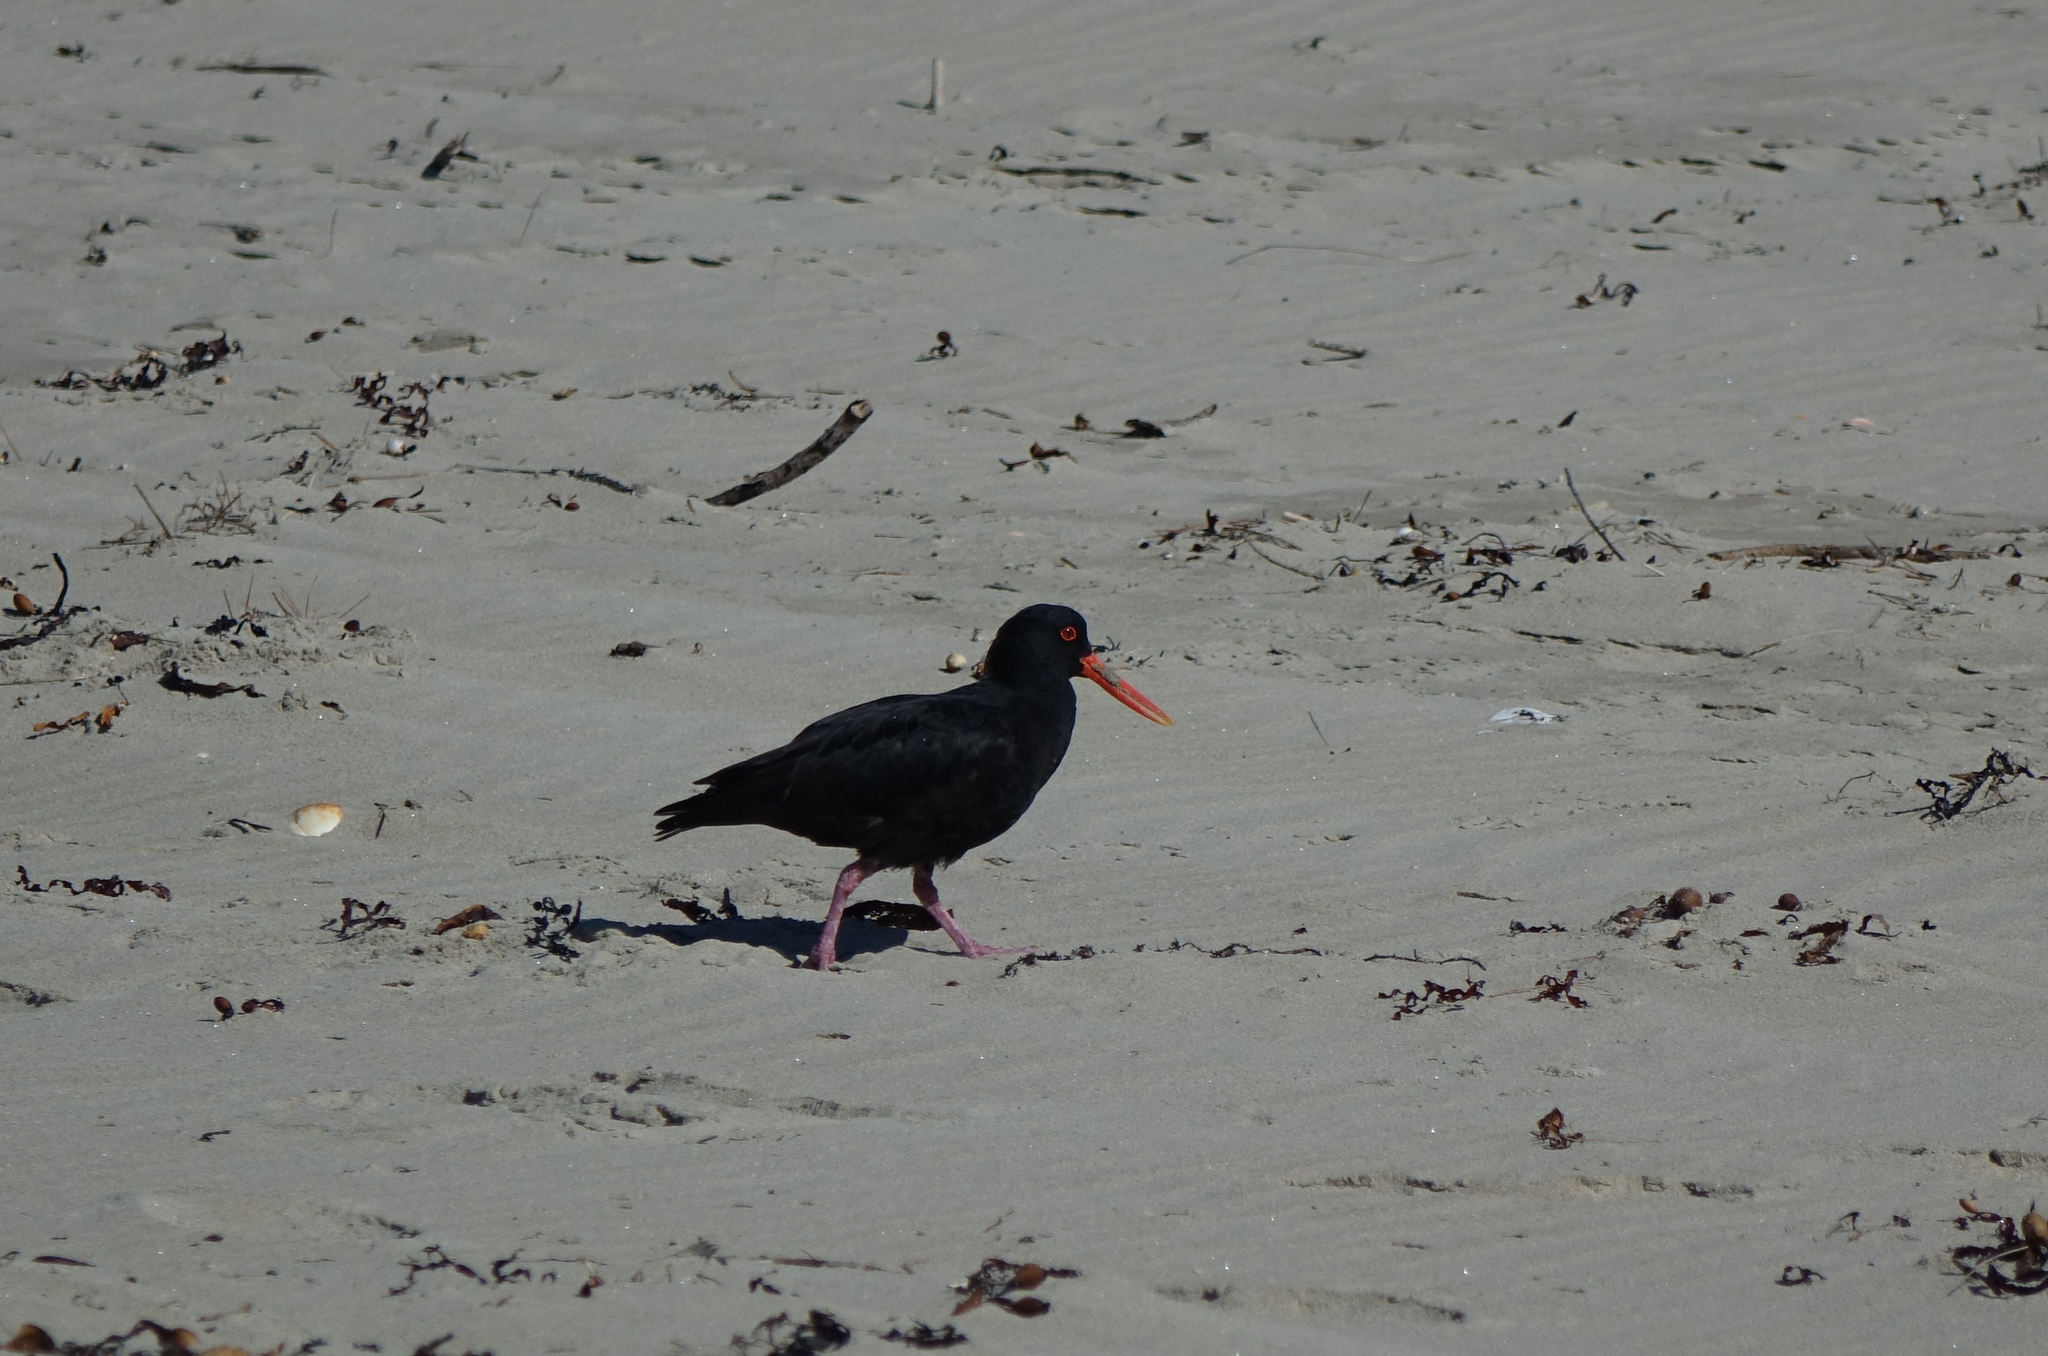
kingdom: Animalia
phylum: Chordata
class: Aves
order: Charadriiformes
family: Haematopodidae
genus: Haematopus
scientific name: Haematopus unicolor
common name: Variable oystercatcher
